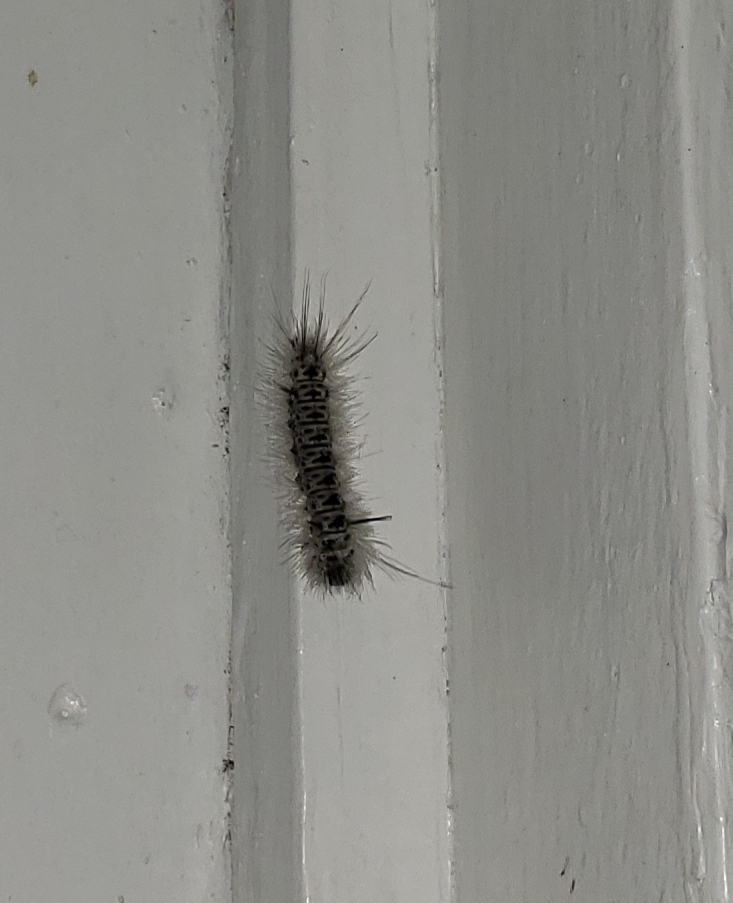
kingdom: Animalia
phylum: Arthropoda
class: Insecta
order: Lepidoptera
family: Erebidae
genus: Lophocampa
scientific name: Lophocampa caryae
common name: Hickory tussock moth
